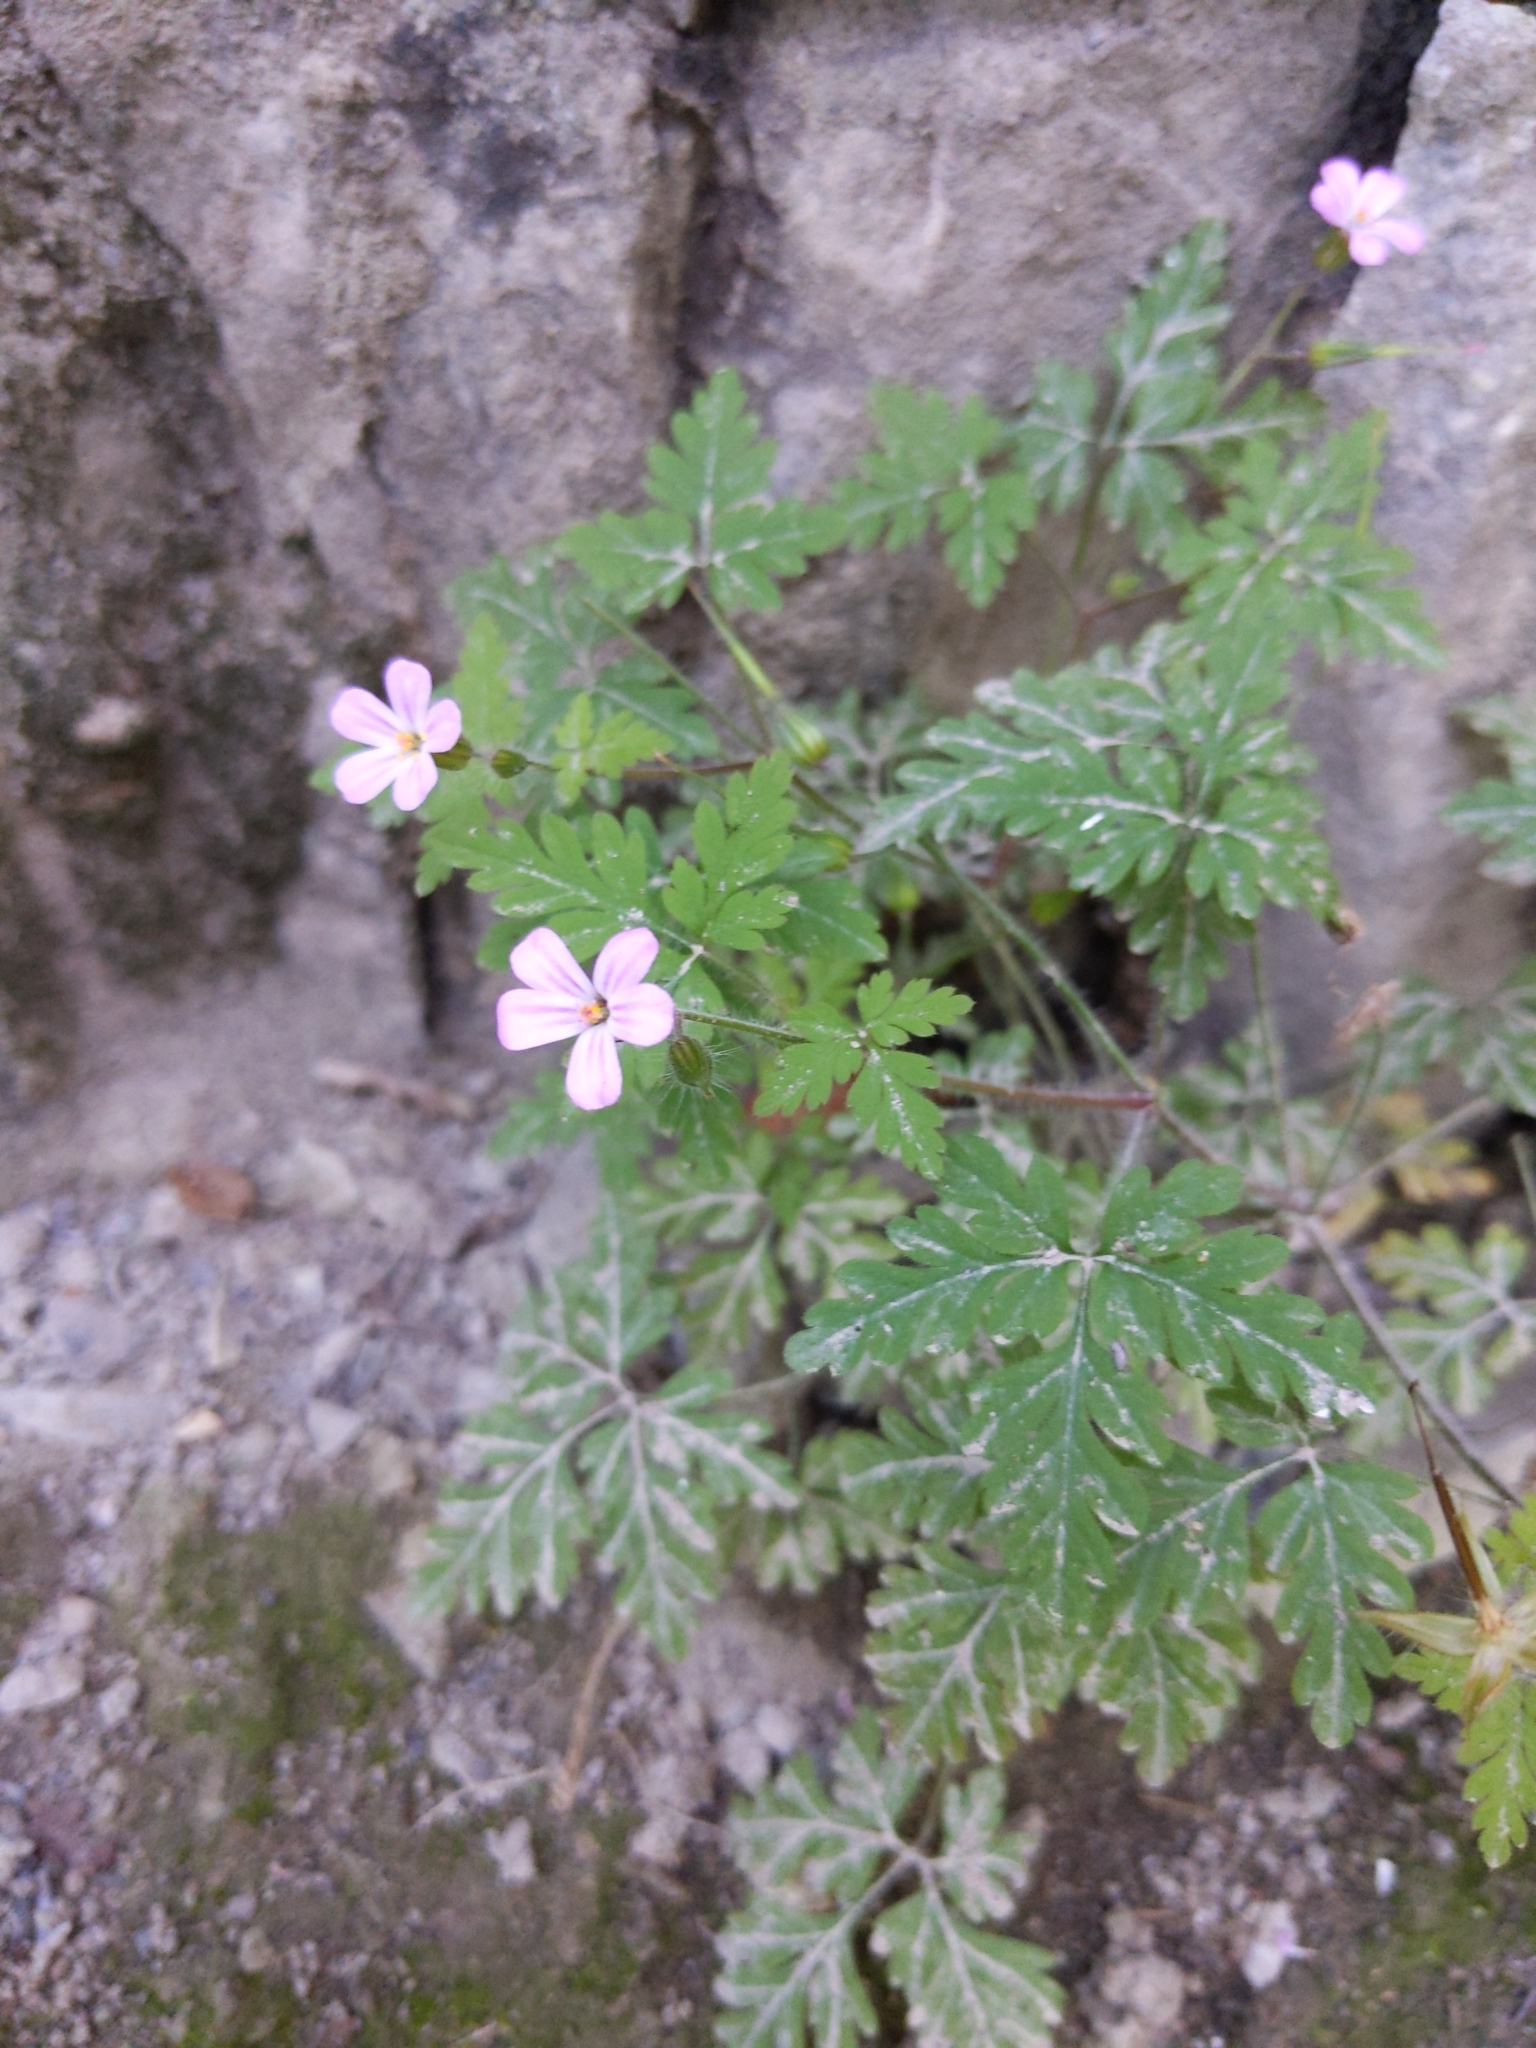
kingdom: Plantae
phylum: Tracheophyta
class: Magnoliopsida
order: Geraniales
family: Geraniaceae
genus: Geranium
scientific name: Geranium robertianum
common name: Herb-robert
